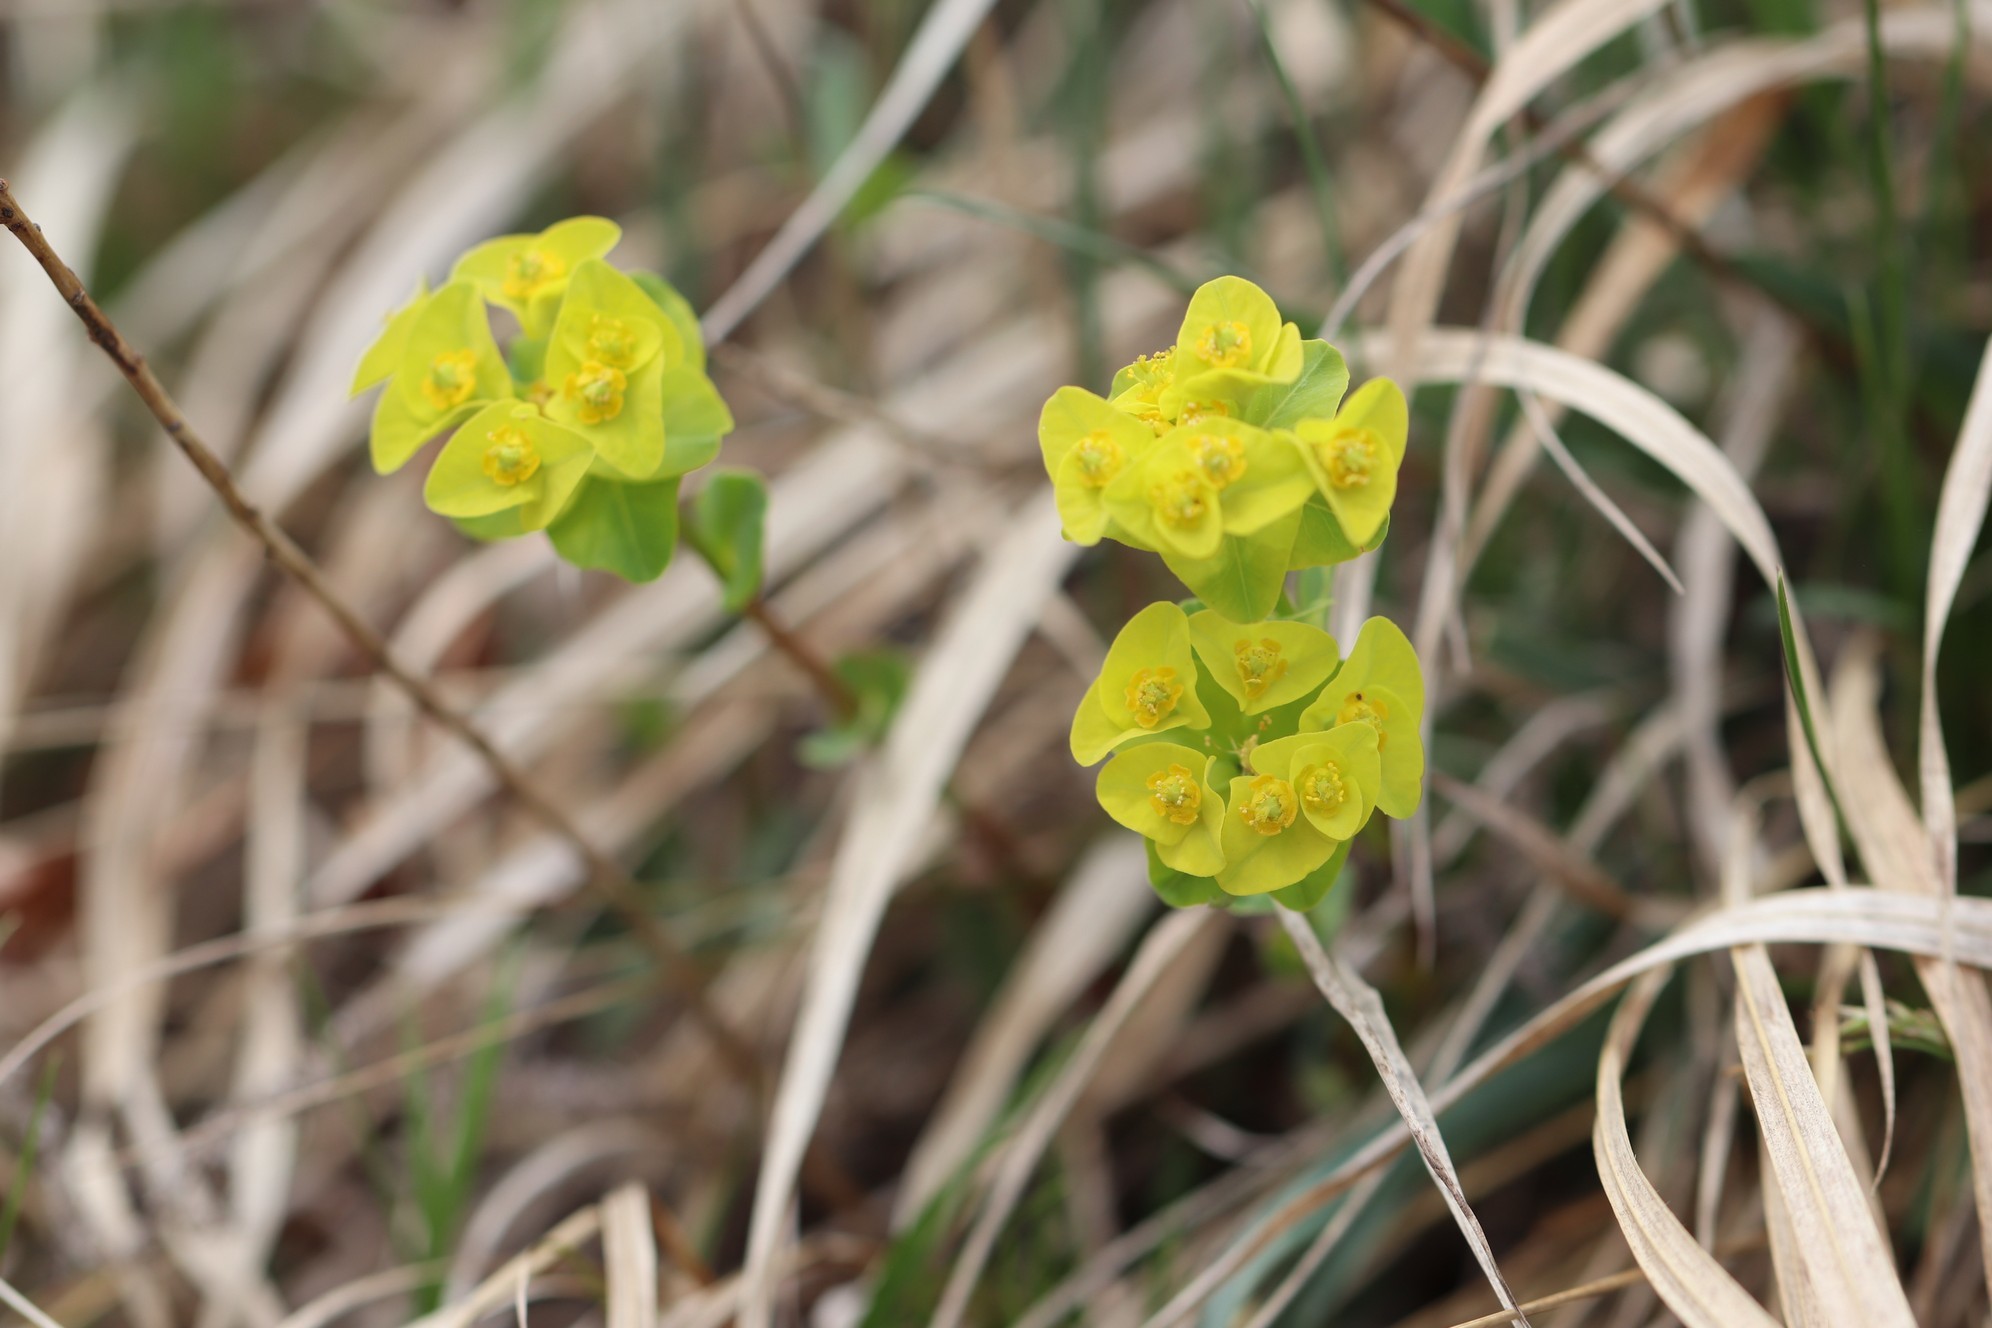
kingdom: Plantae
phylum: Tracheophyta
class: Magnoliopsida
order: Malpighiales
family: Euphorbiaceae
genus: Euphorbia
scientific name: Euphorbia altaica
